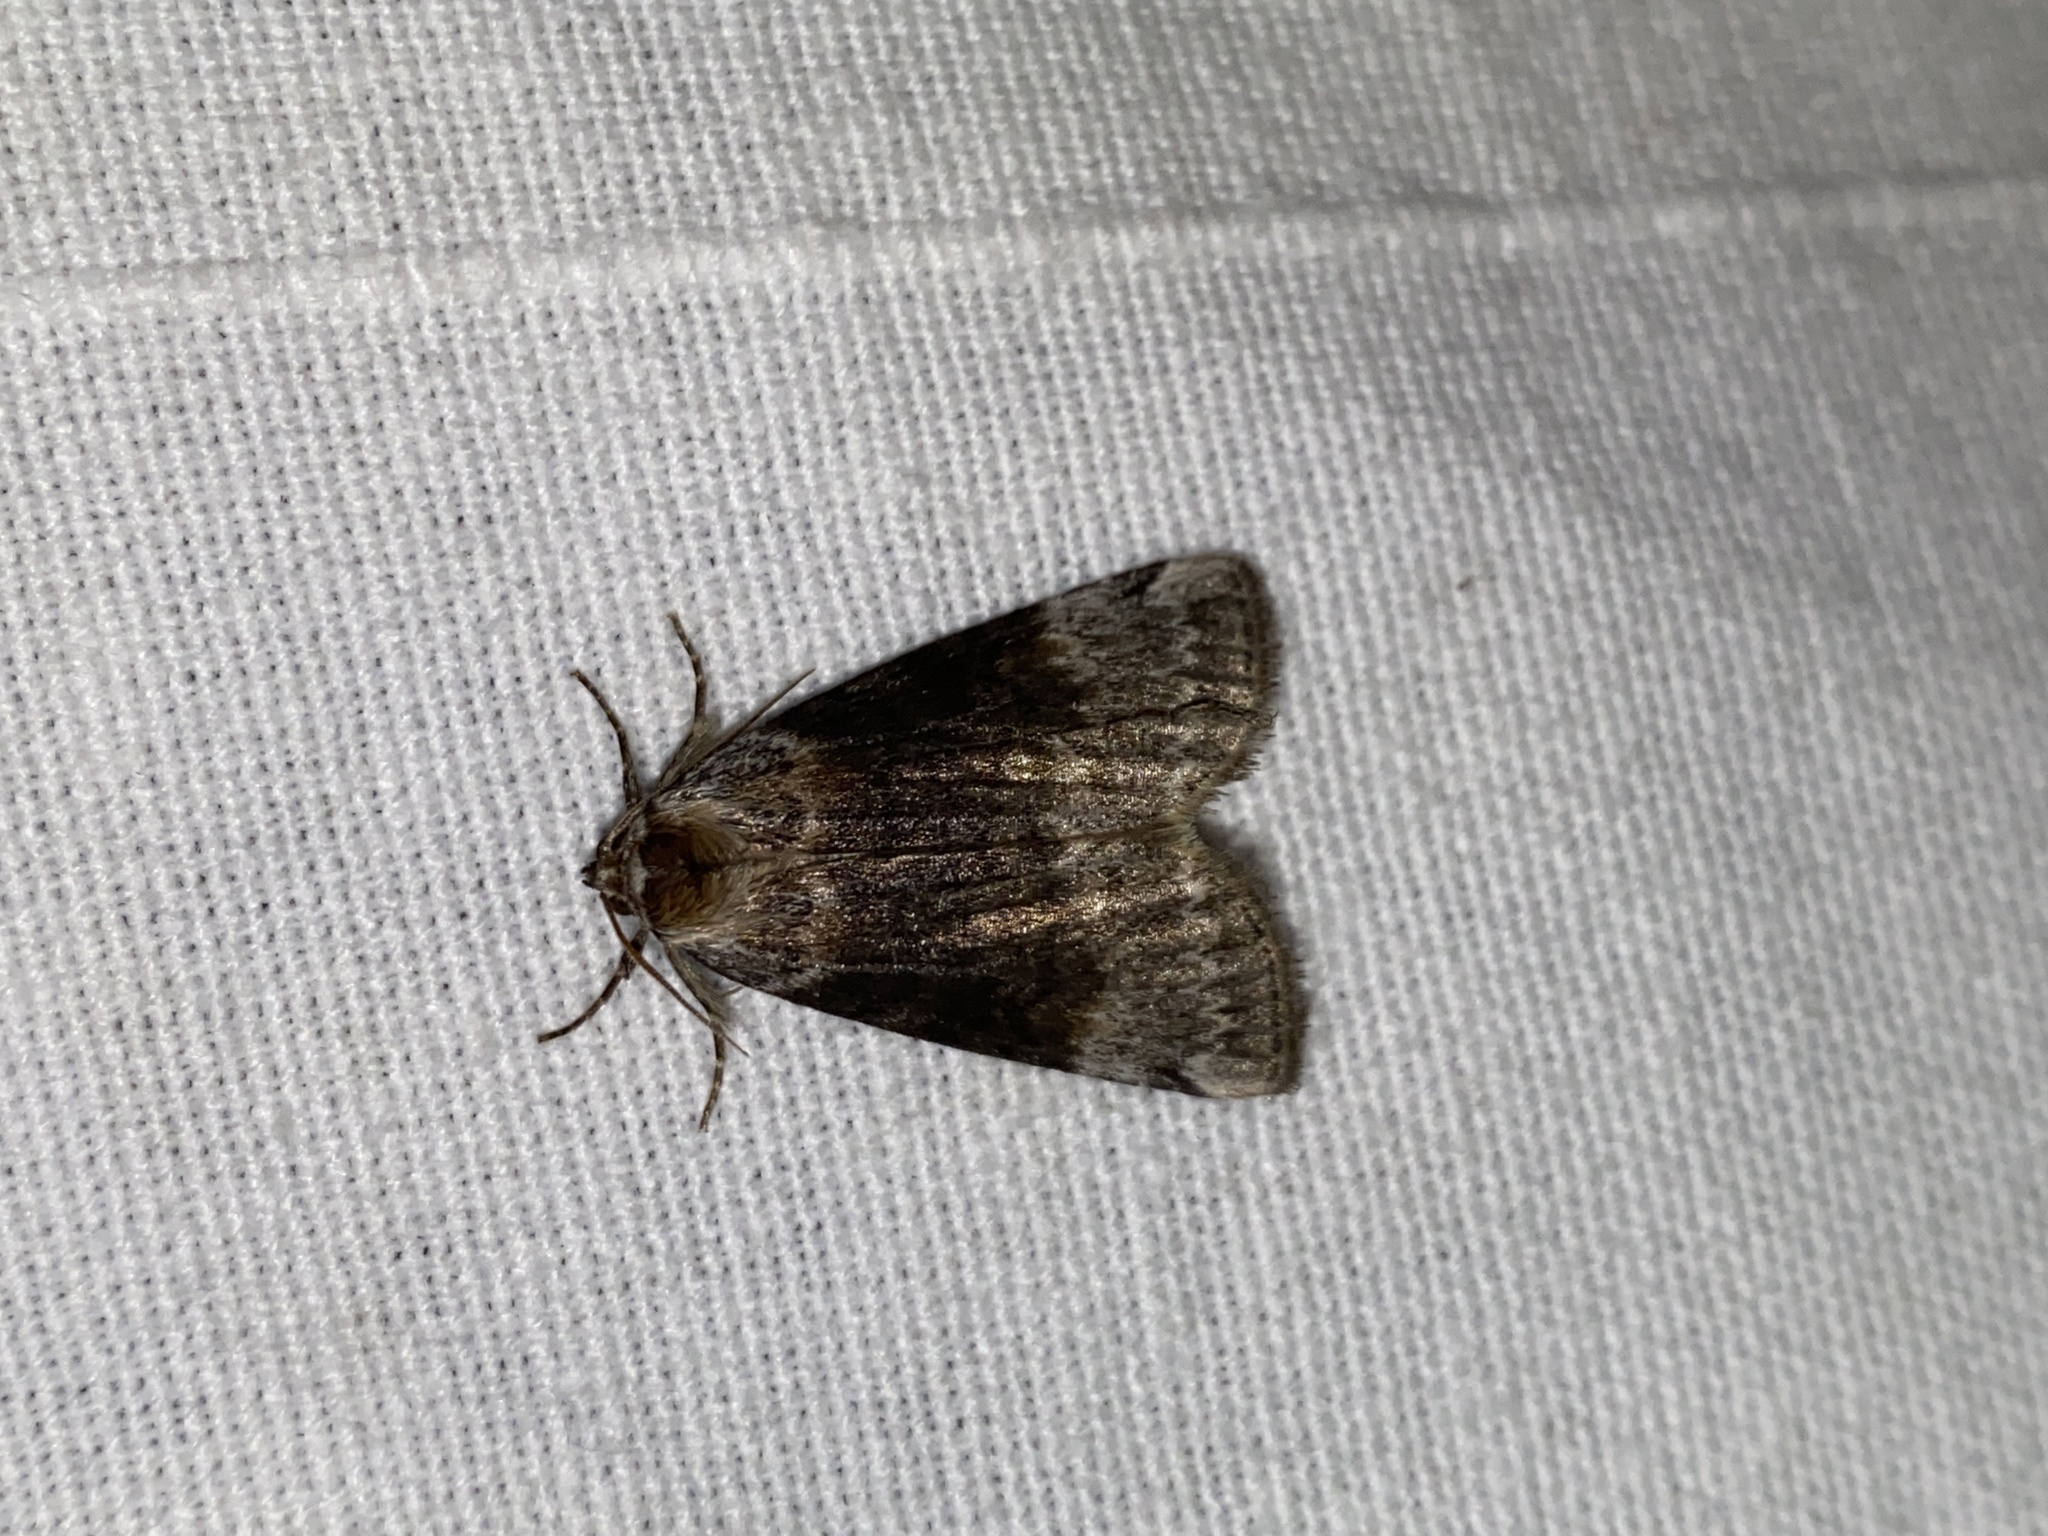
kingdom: Animalia
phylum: Arthropoda
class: Insecta
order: Lepidoptera
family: Drepanidae
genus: Tetheella
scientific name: Tetheella fluctuosa
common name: Satin lutestring
